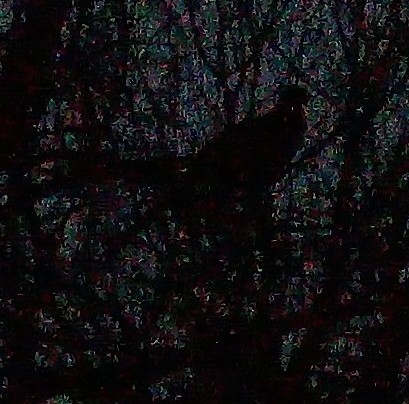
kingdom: Animalia
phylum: Chordata
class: Aves
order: Galliformes
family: Phasianidae
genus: Phasianus
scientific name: Phasianus colchicus
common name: Common pheasant
